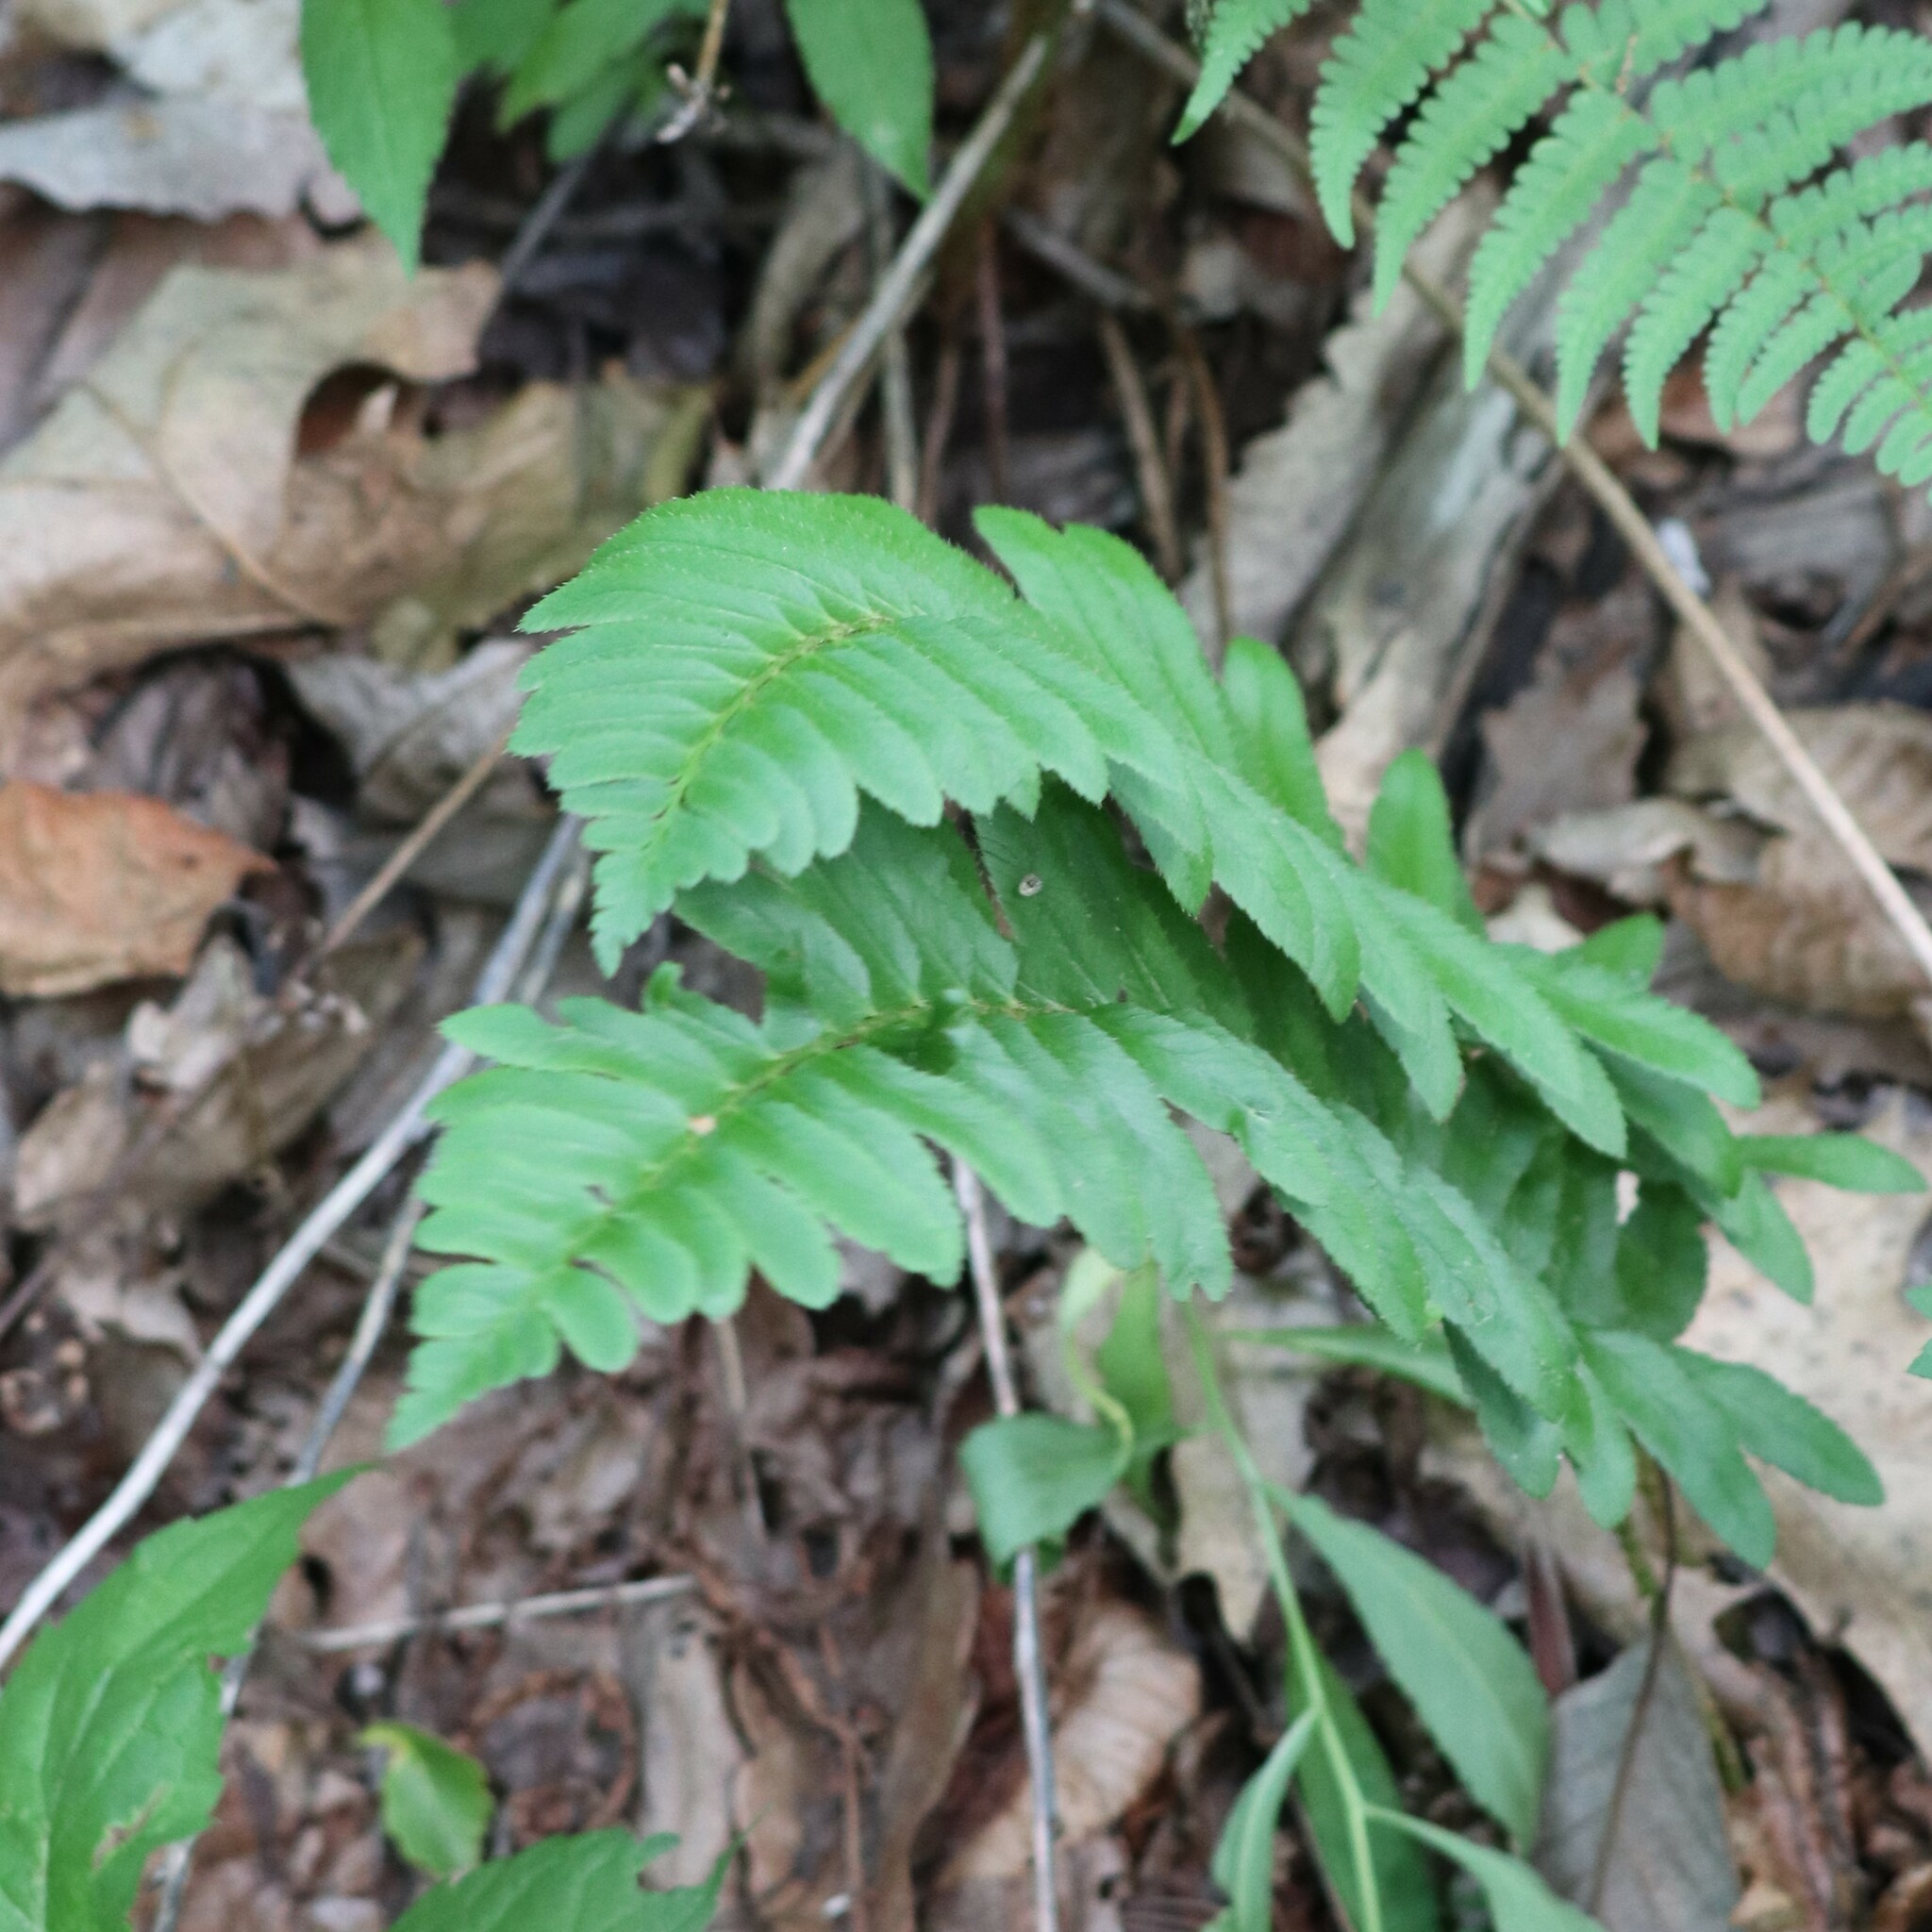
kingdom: Plantae
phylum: Tracheophyta
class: Polypodiopsida
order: Polypodiales
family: Dryopteridaceae
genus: Polystichum
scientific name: Polystichum acrostichoides
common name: Christmas fern
